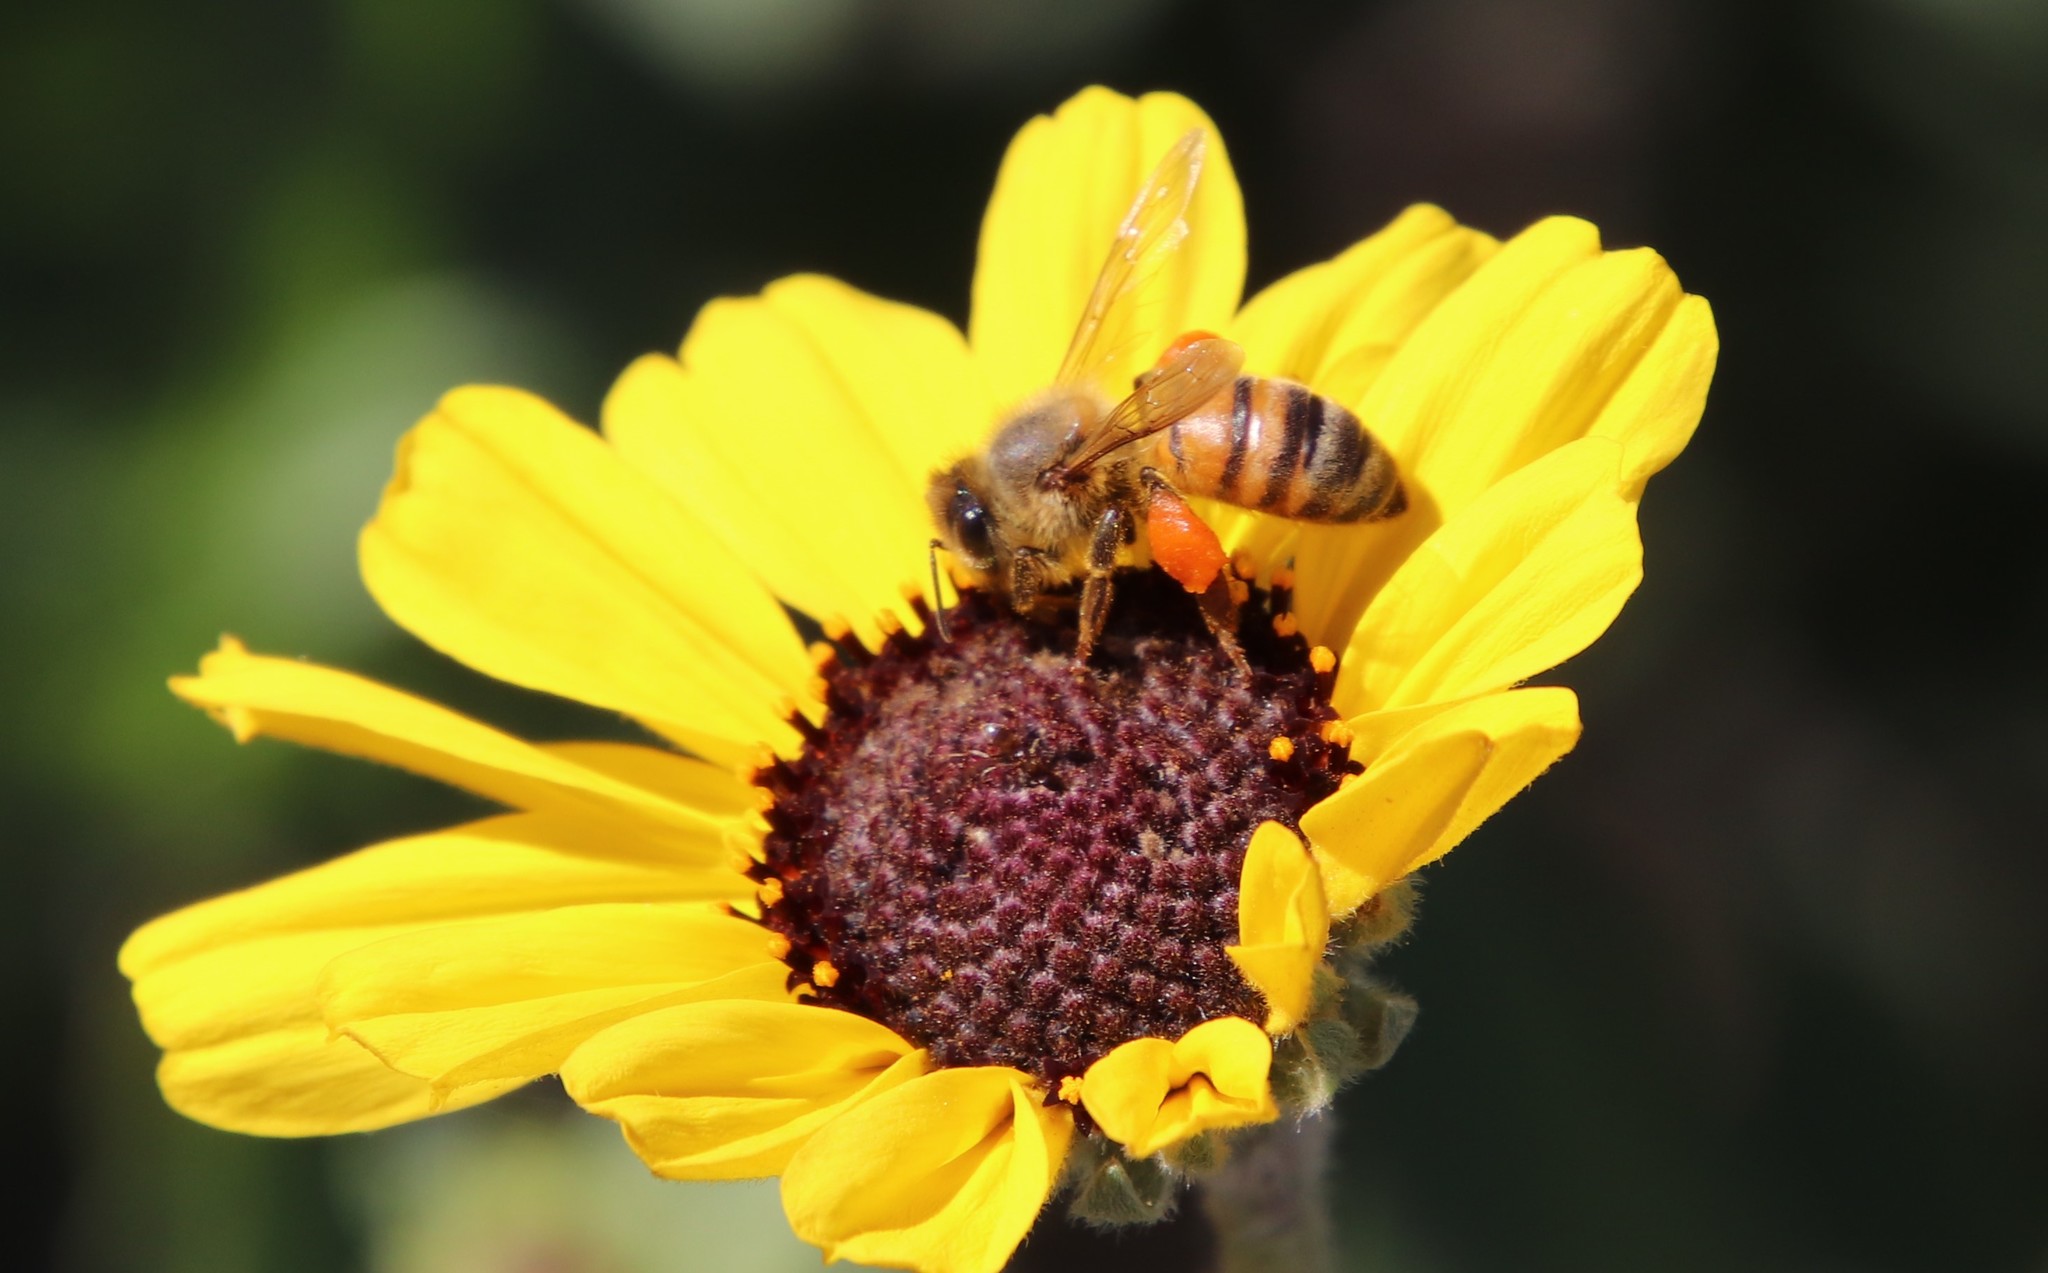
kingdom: Animalia
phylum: Arthropoda
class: Insecta
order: Hymenoptera
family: Apidae
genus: Apis
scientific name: Apis mellifera
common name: Honey bee
